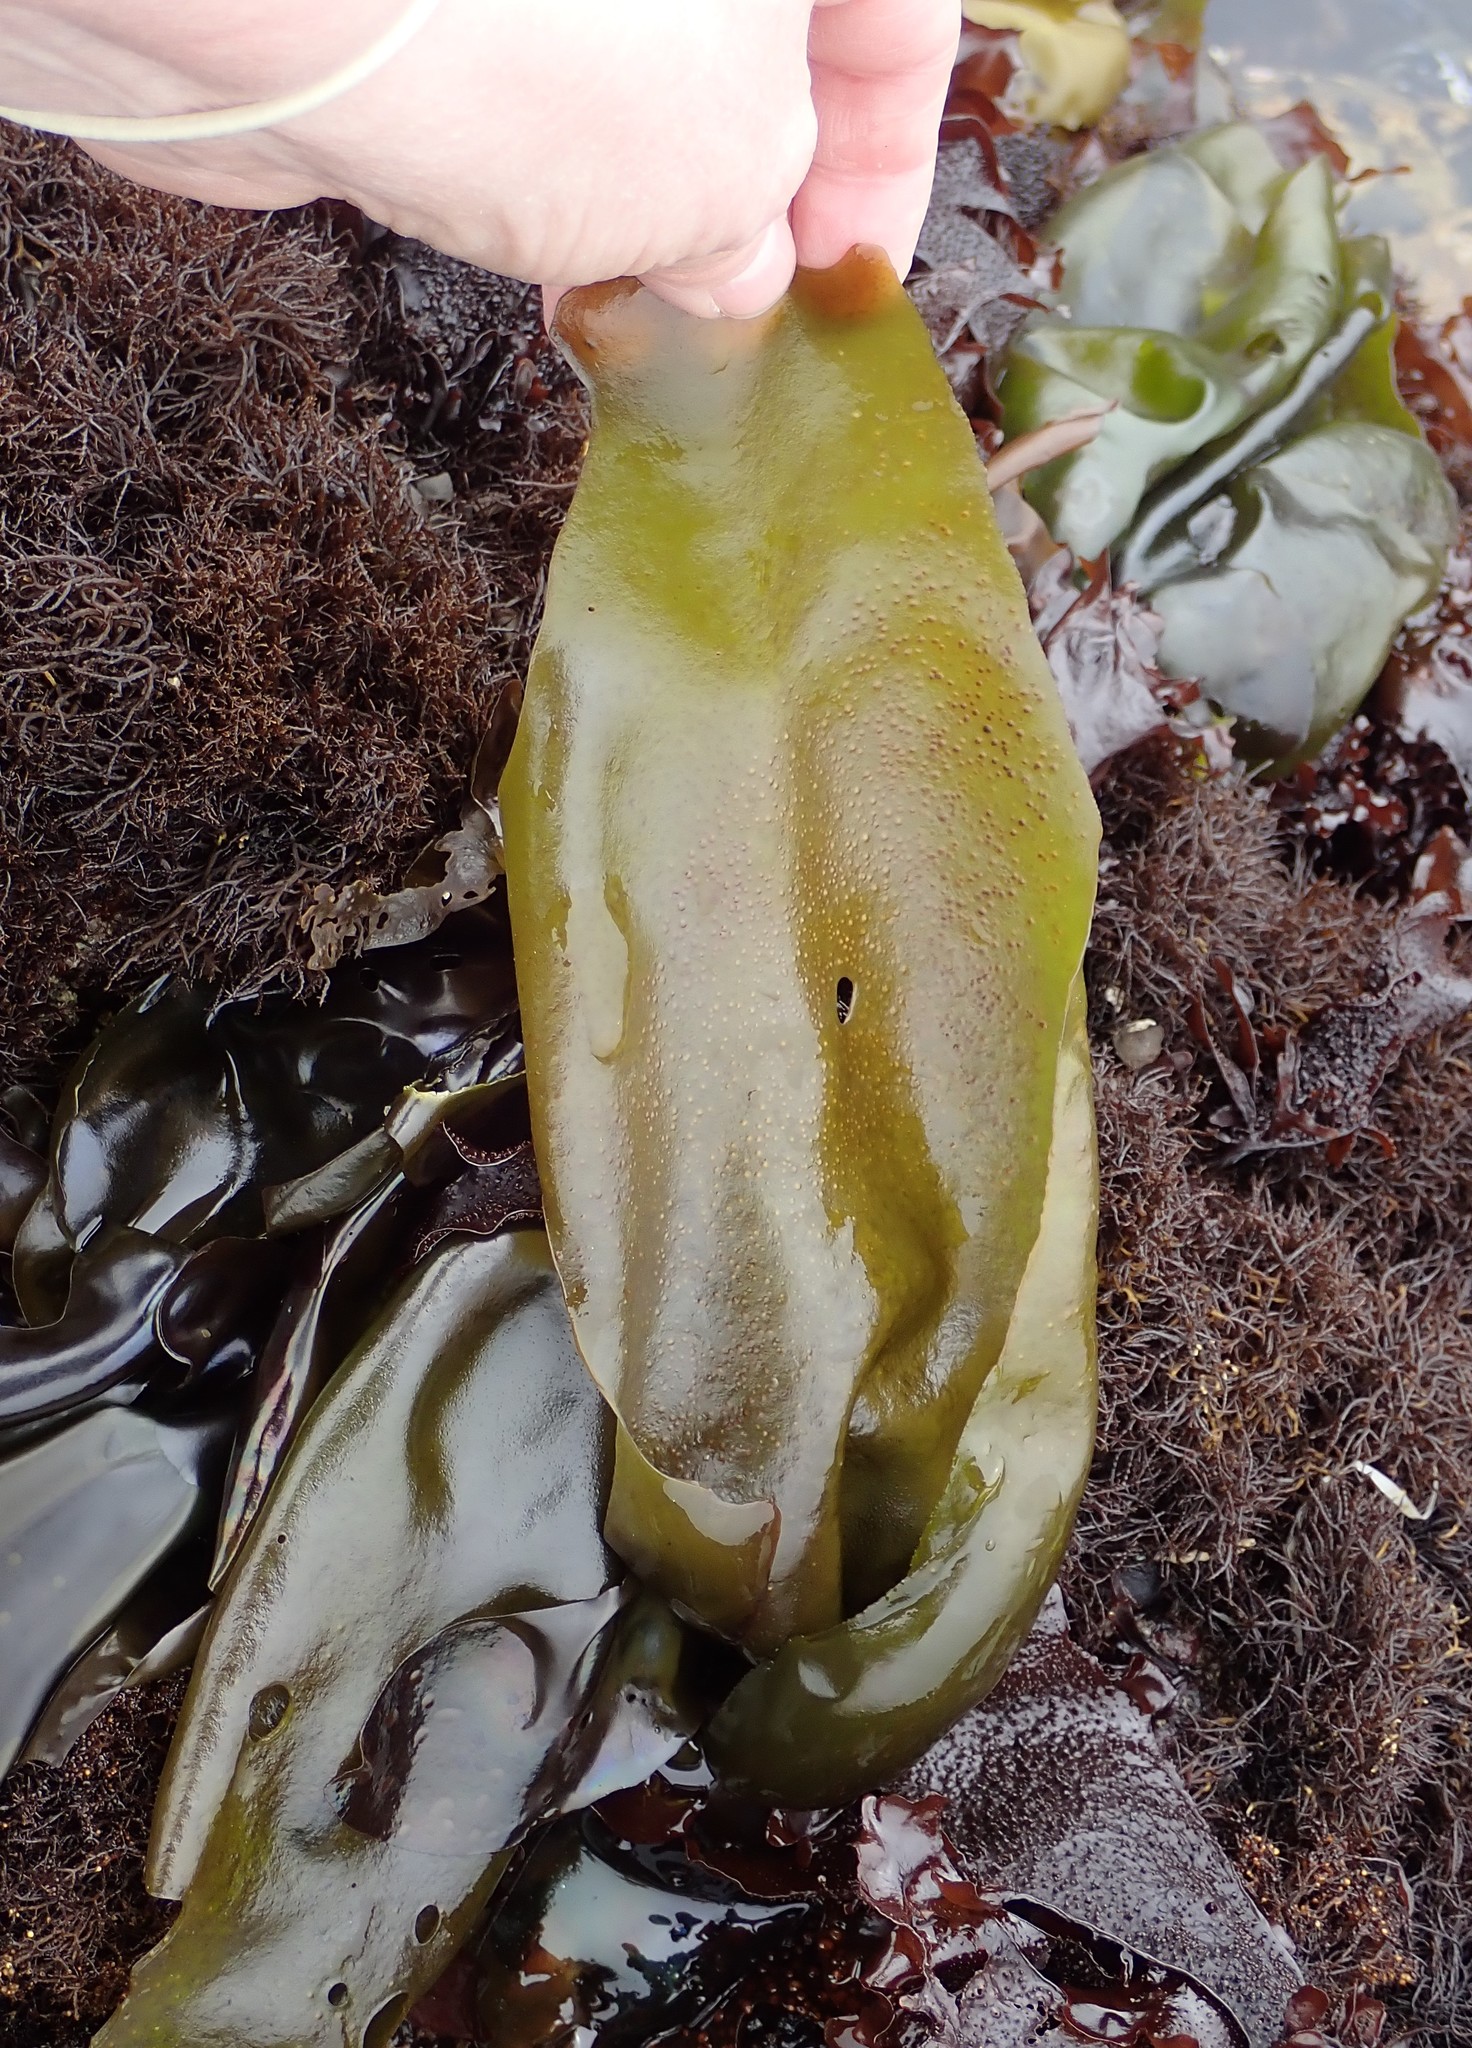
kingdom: Plantae
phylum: Rhodophyta
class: Florideophyceae
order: Gigartinales
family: Gigartinaceae
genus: Mazzaella
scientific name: Mazzaella flaccida
